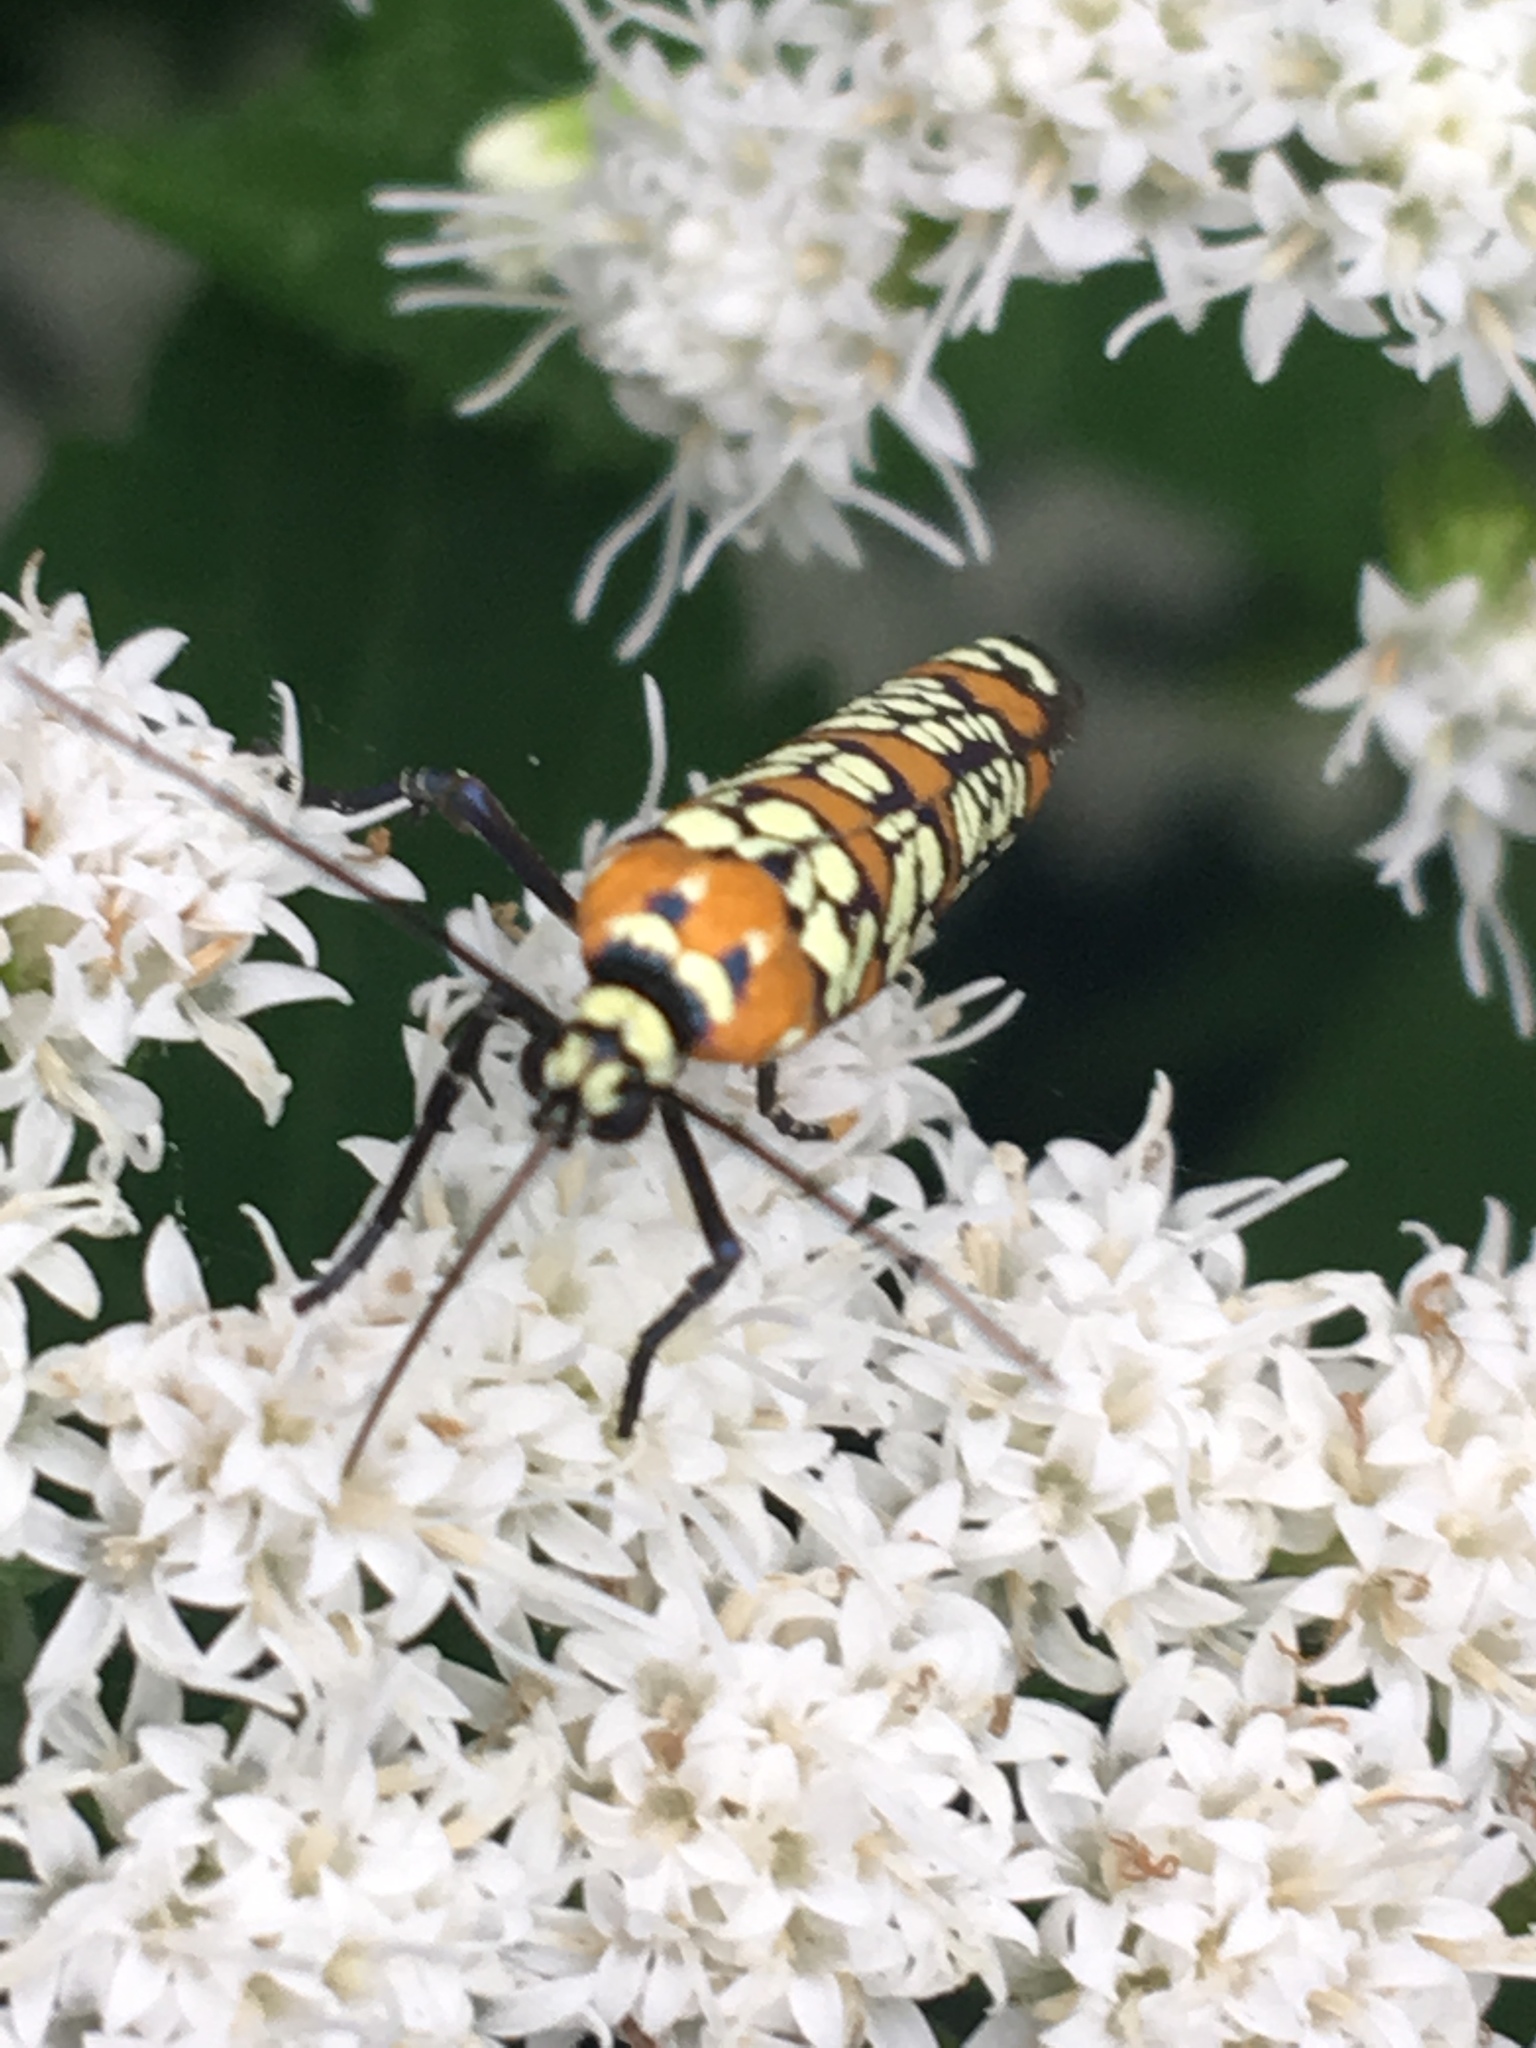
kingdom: Animalia
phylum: Arthropoda
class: Insecta
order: Lepidoptera
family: Attevidae
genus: Atteva
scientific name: Atteva punctella
